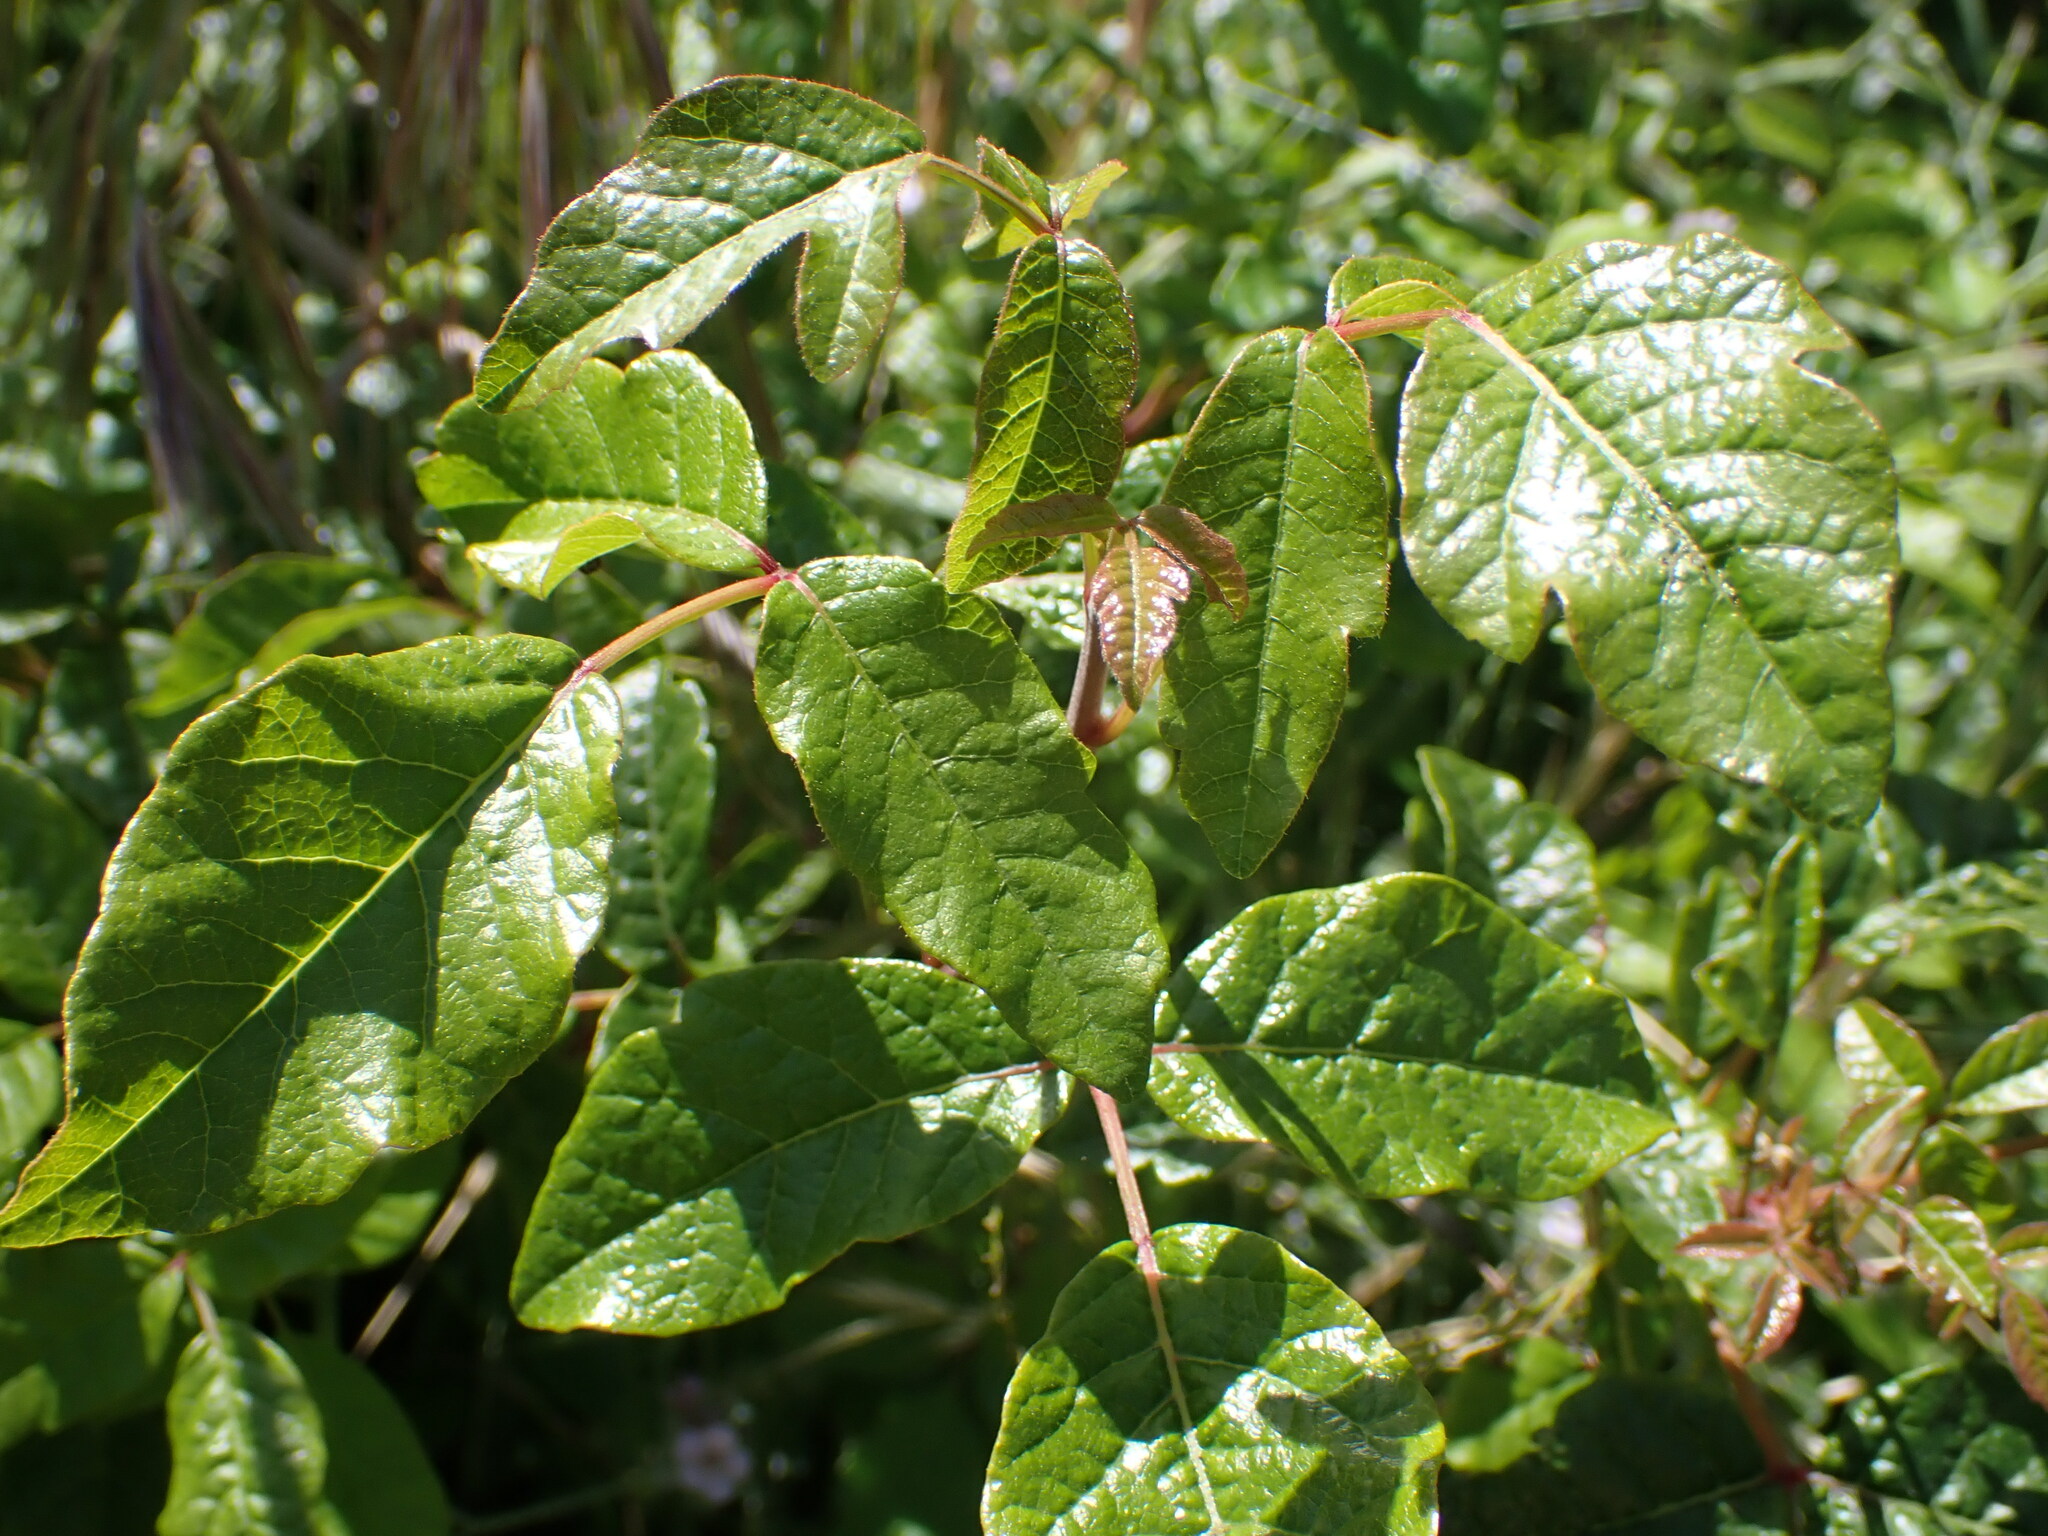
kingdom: Plantae
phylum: Tracheophyta
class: Magnoliopsida
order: Sapindales
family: Anacardiaceae
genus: Toxicodendron
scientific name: Toxicodendron diversilobum
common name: Pacific poison-oak
